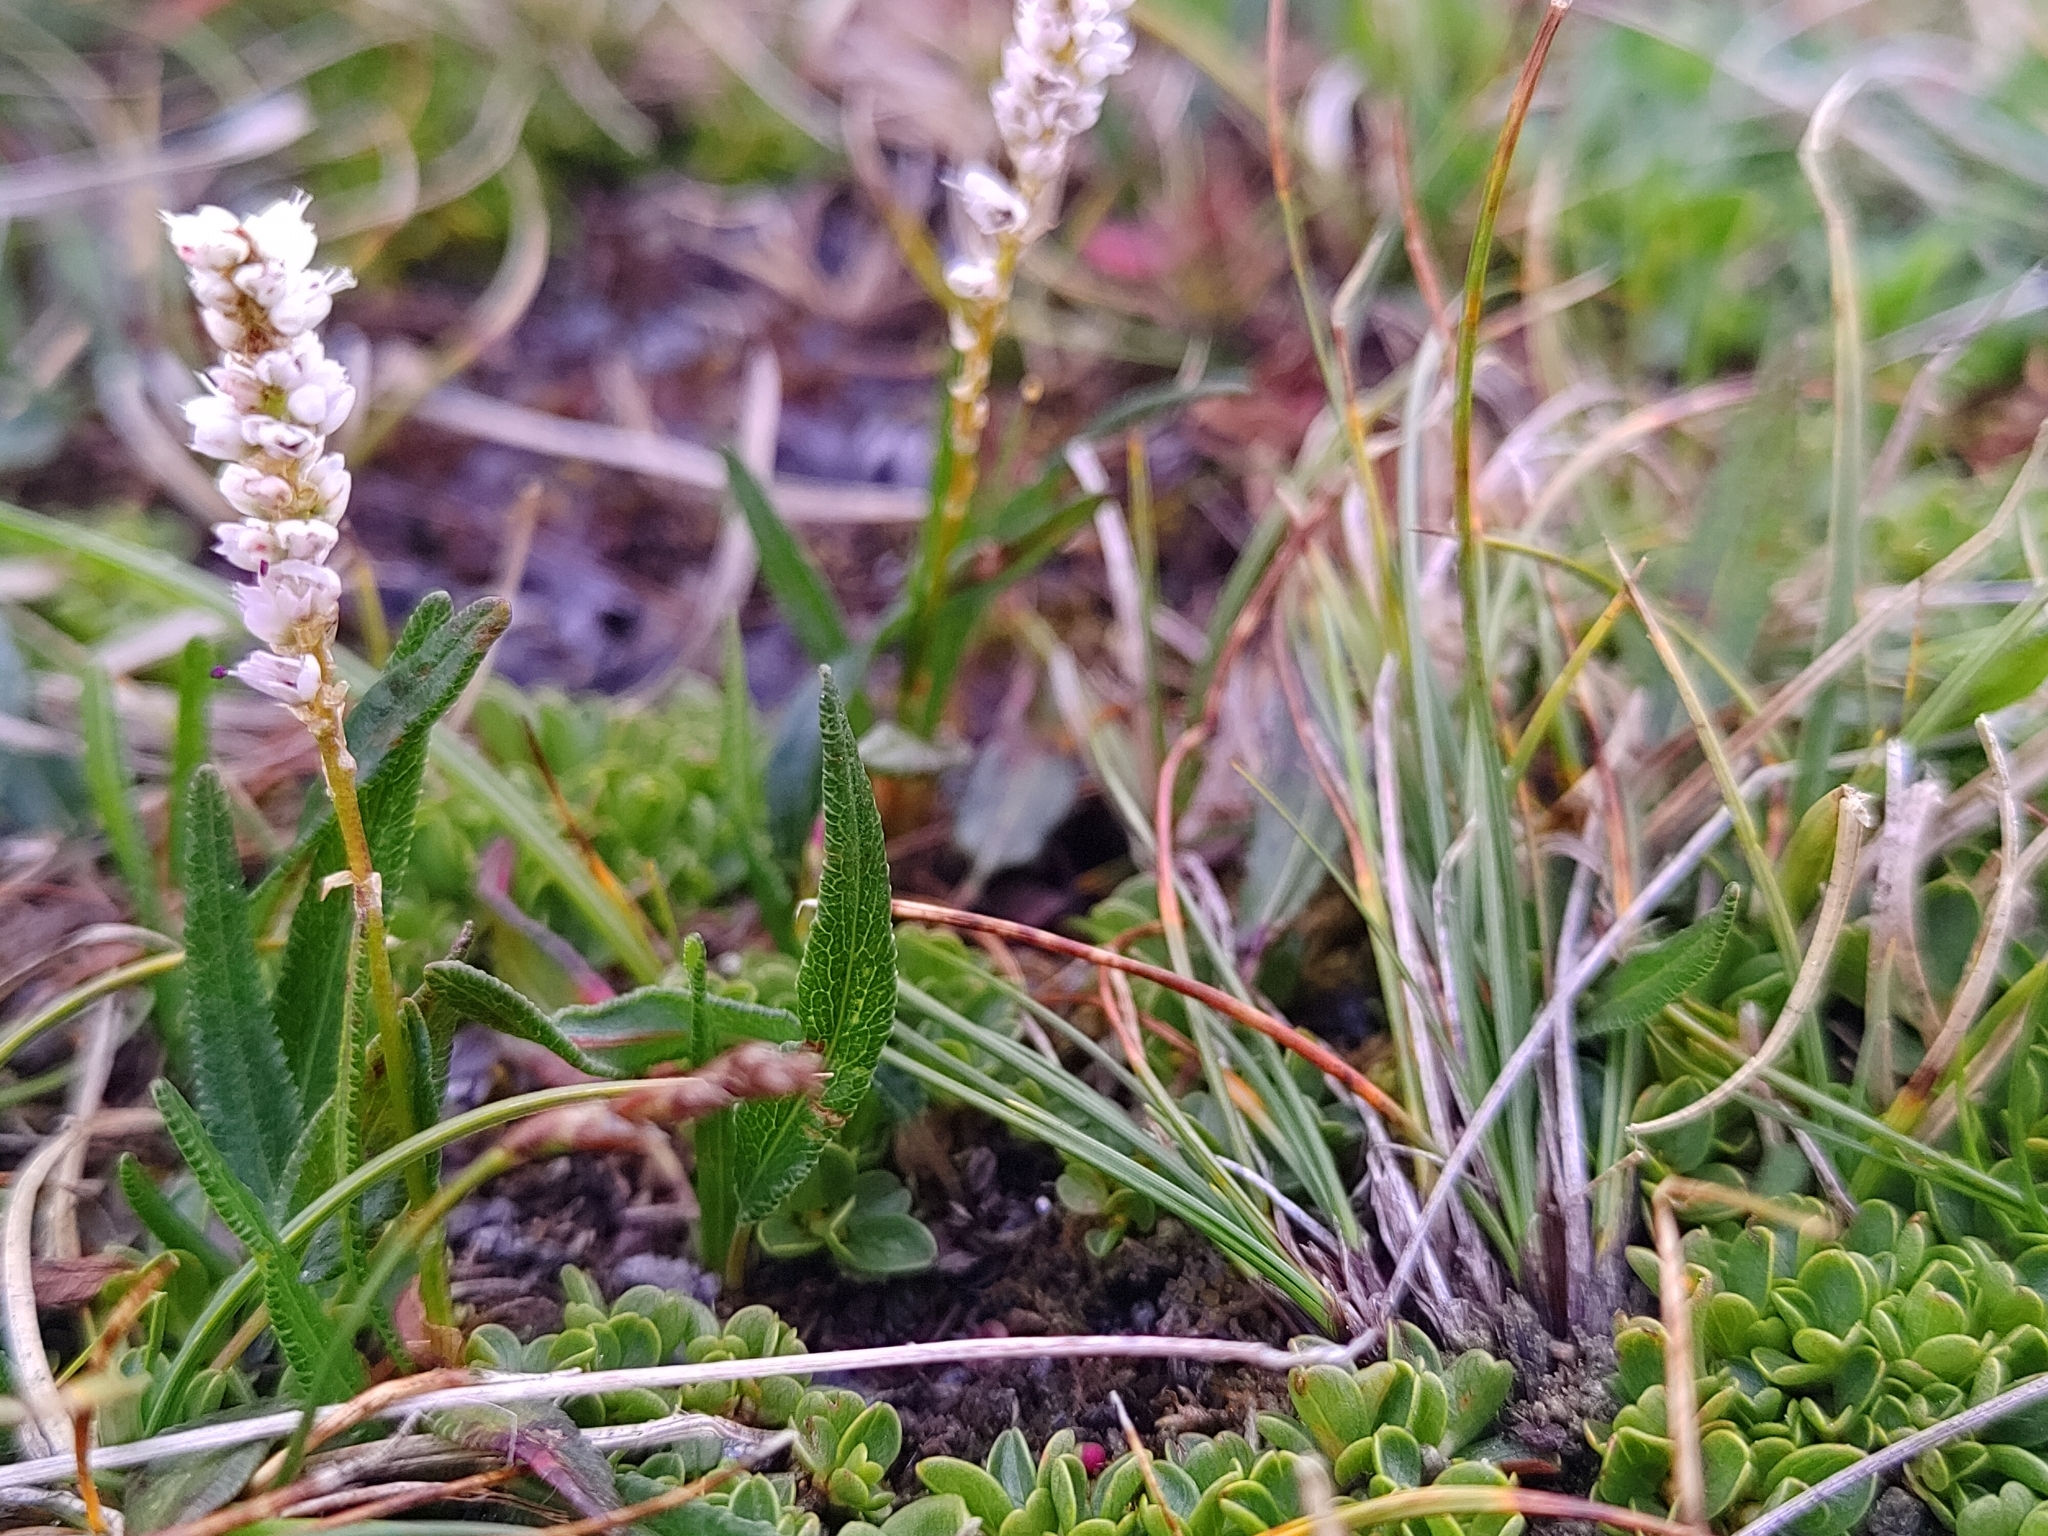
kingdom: Plantae
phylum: Tracheophyta
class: Magnoliopsida
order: Caryophyllales
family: Polygonaceae
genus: Bistorta
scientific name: Bistorta vivipara
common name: Alpine bistort
